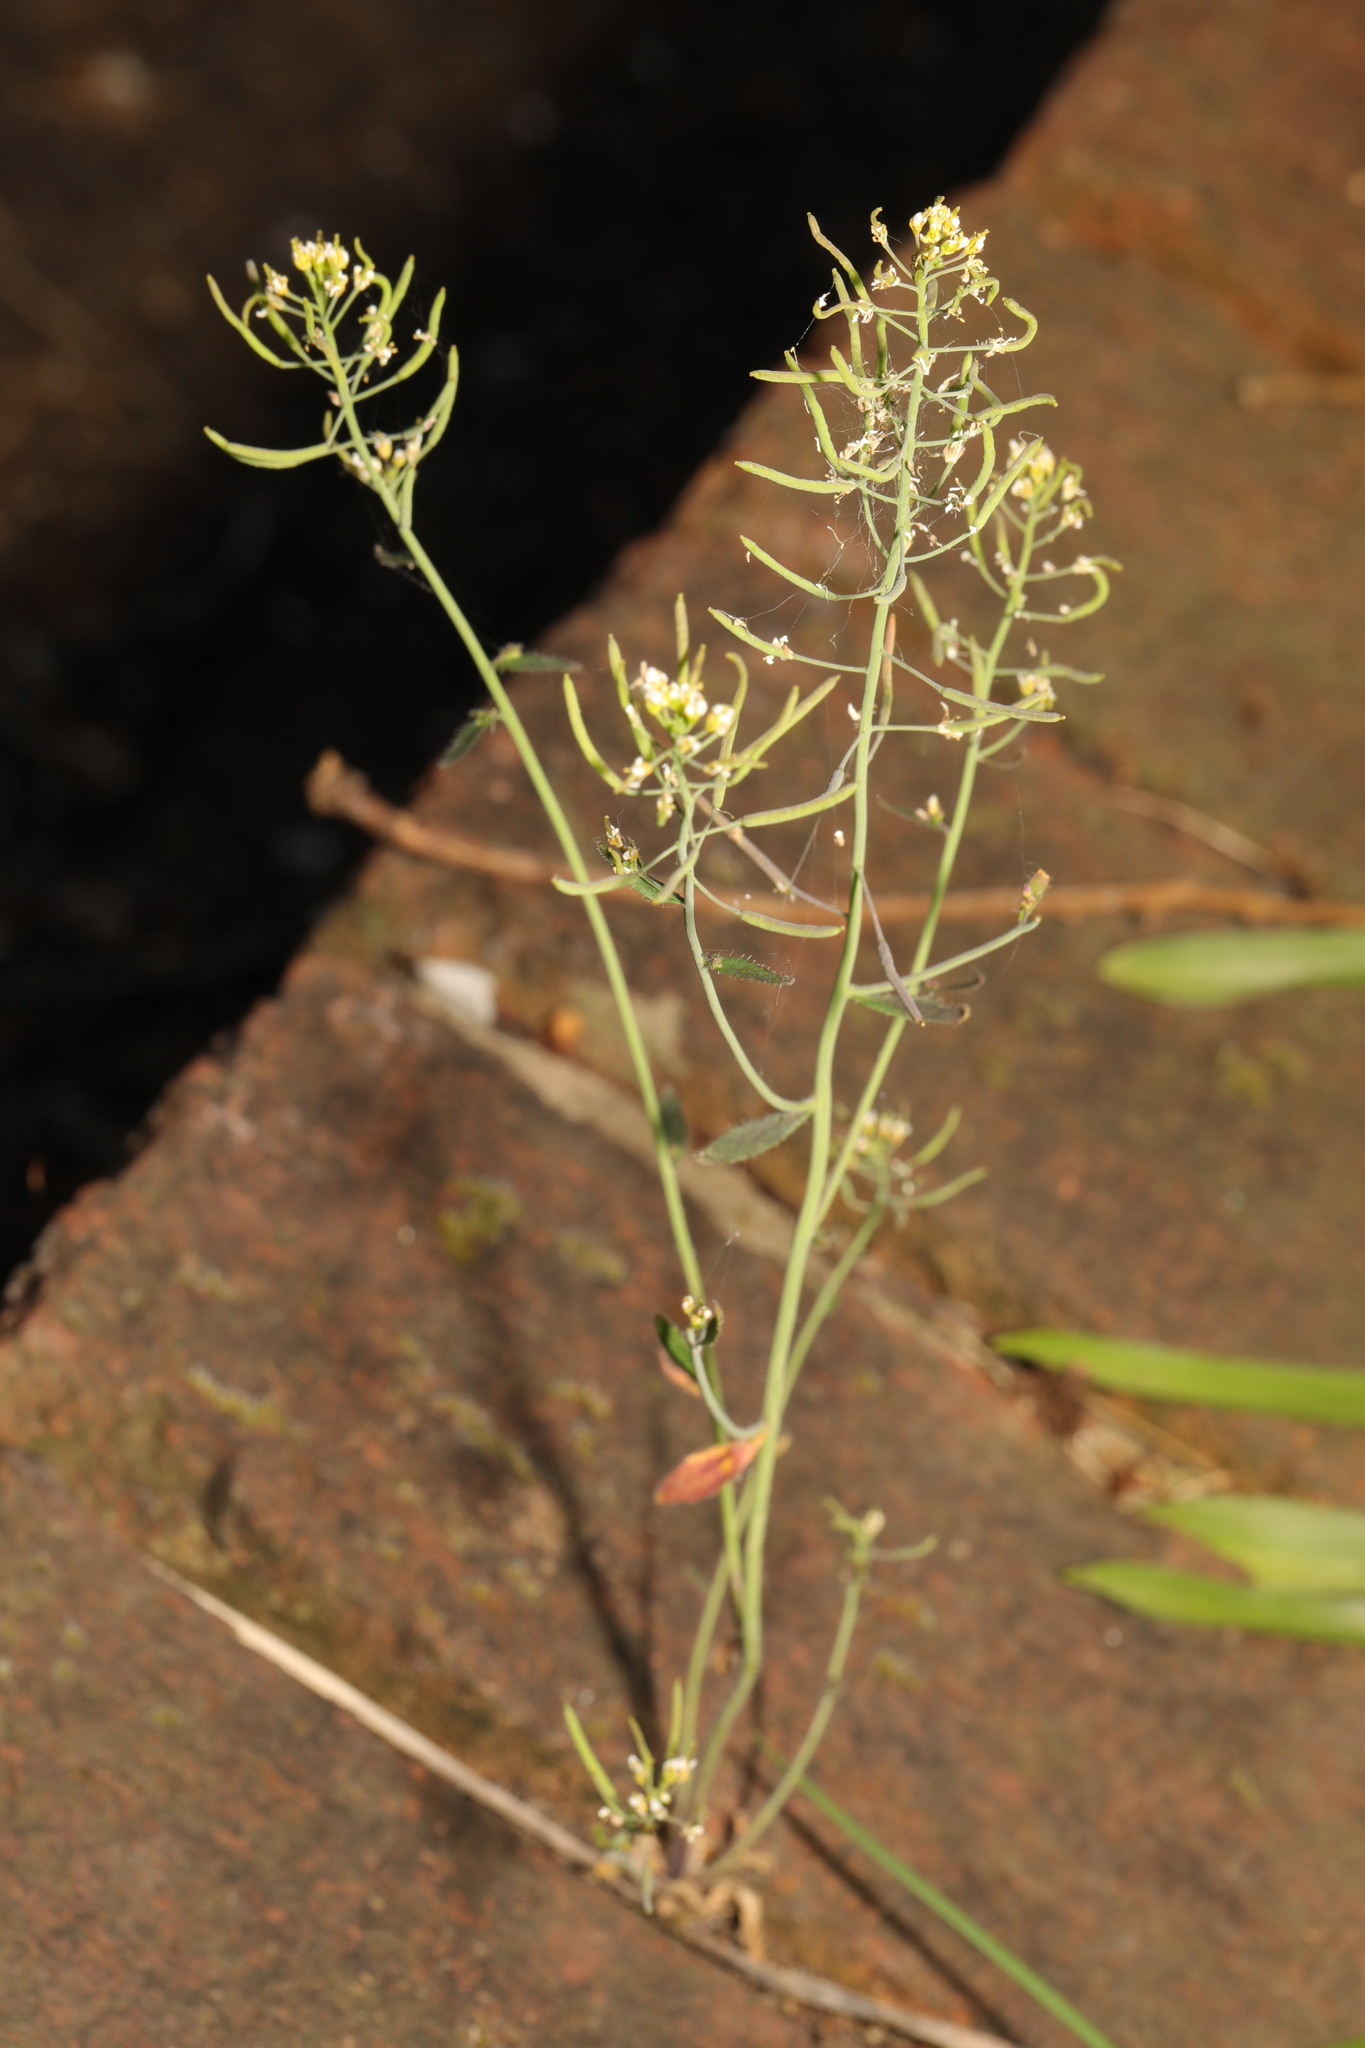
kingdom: Plantae
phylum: Tracheophyta
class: Magnoliopsida
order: Brassicales
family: Brassicaceae
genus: Arabidopsis
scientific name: Arabidopsis thaliana
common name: Thale cress
